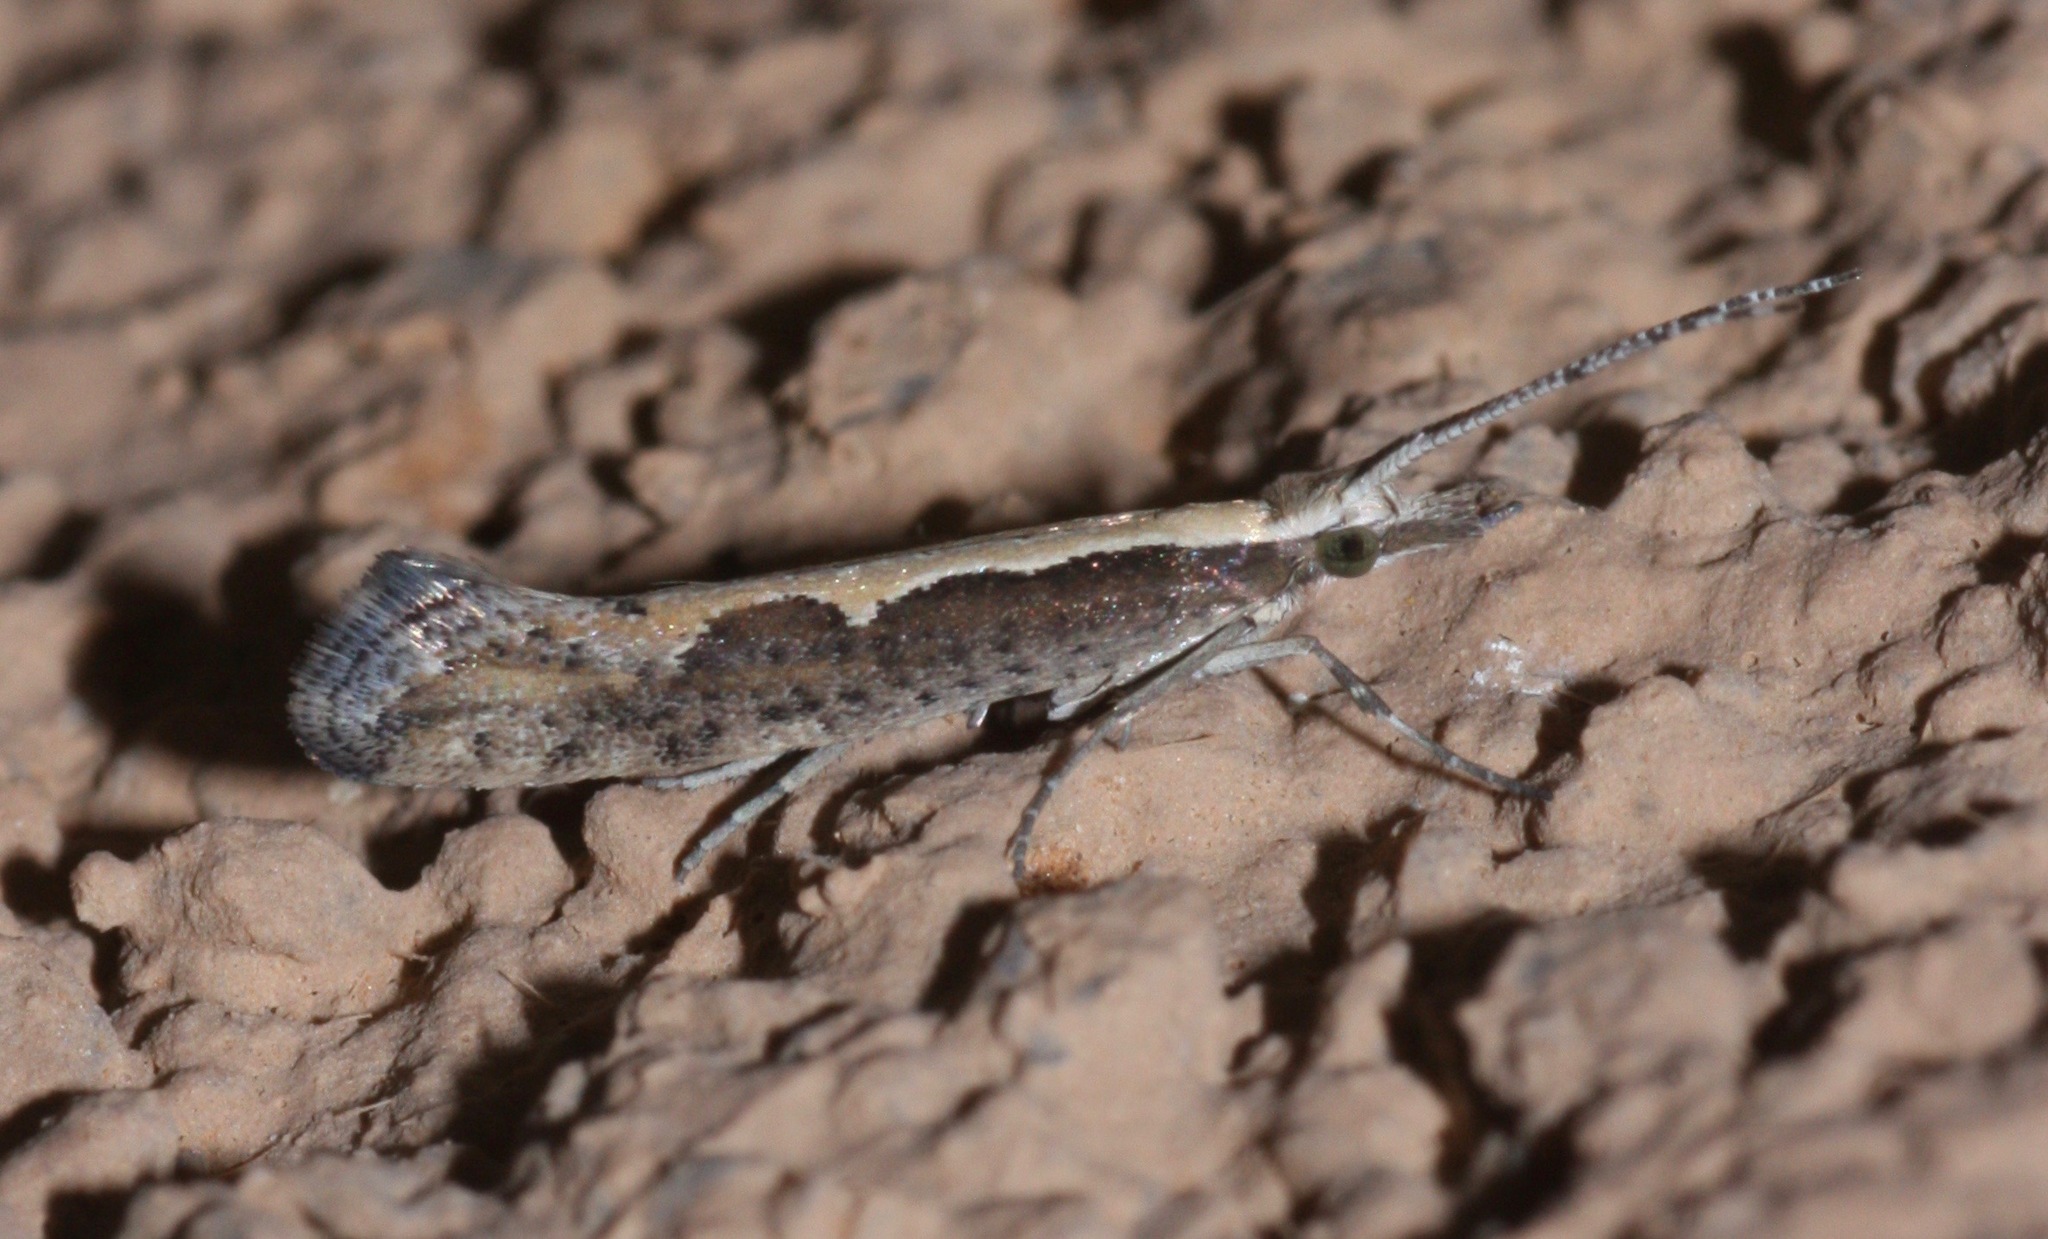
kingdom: Animalia
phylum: Arthropoda
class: Insecta
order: Lepidoptera
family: Plutellidae
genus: Plutella
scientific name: Plutella xylostella
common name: Diamond-back moth
